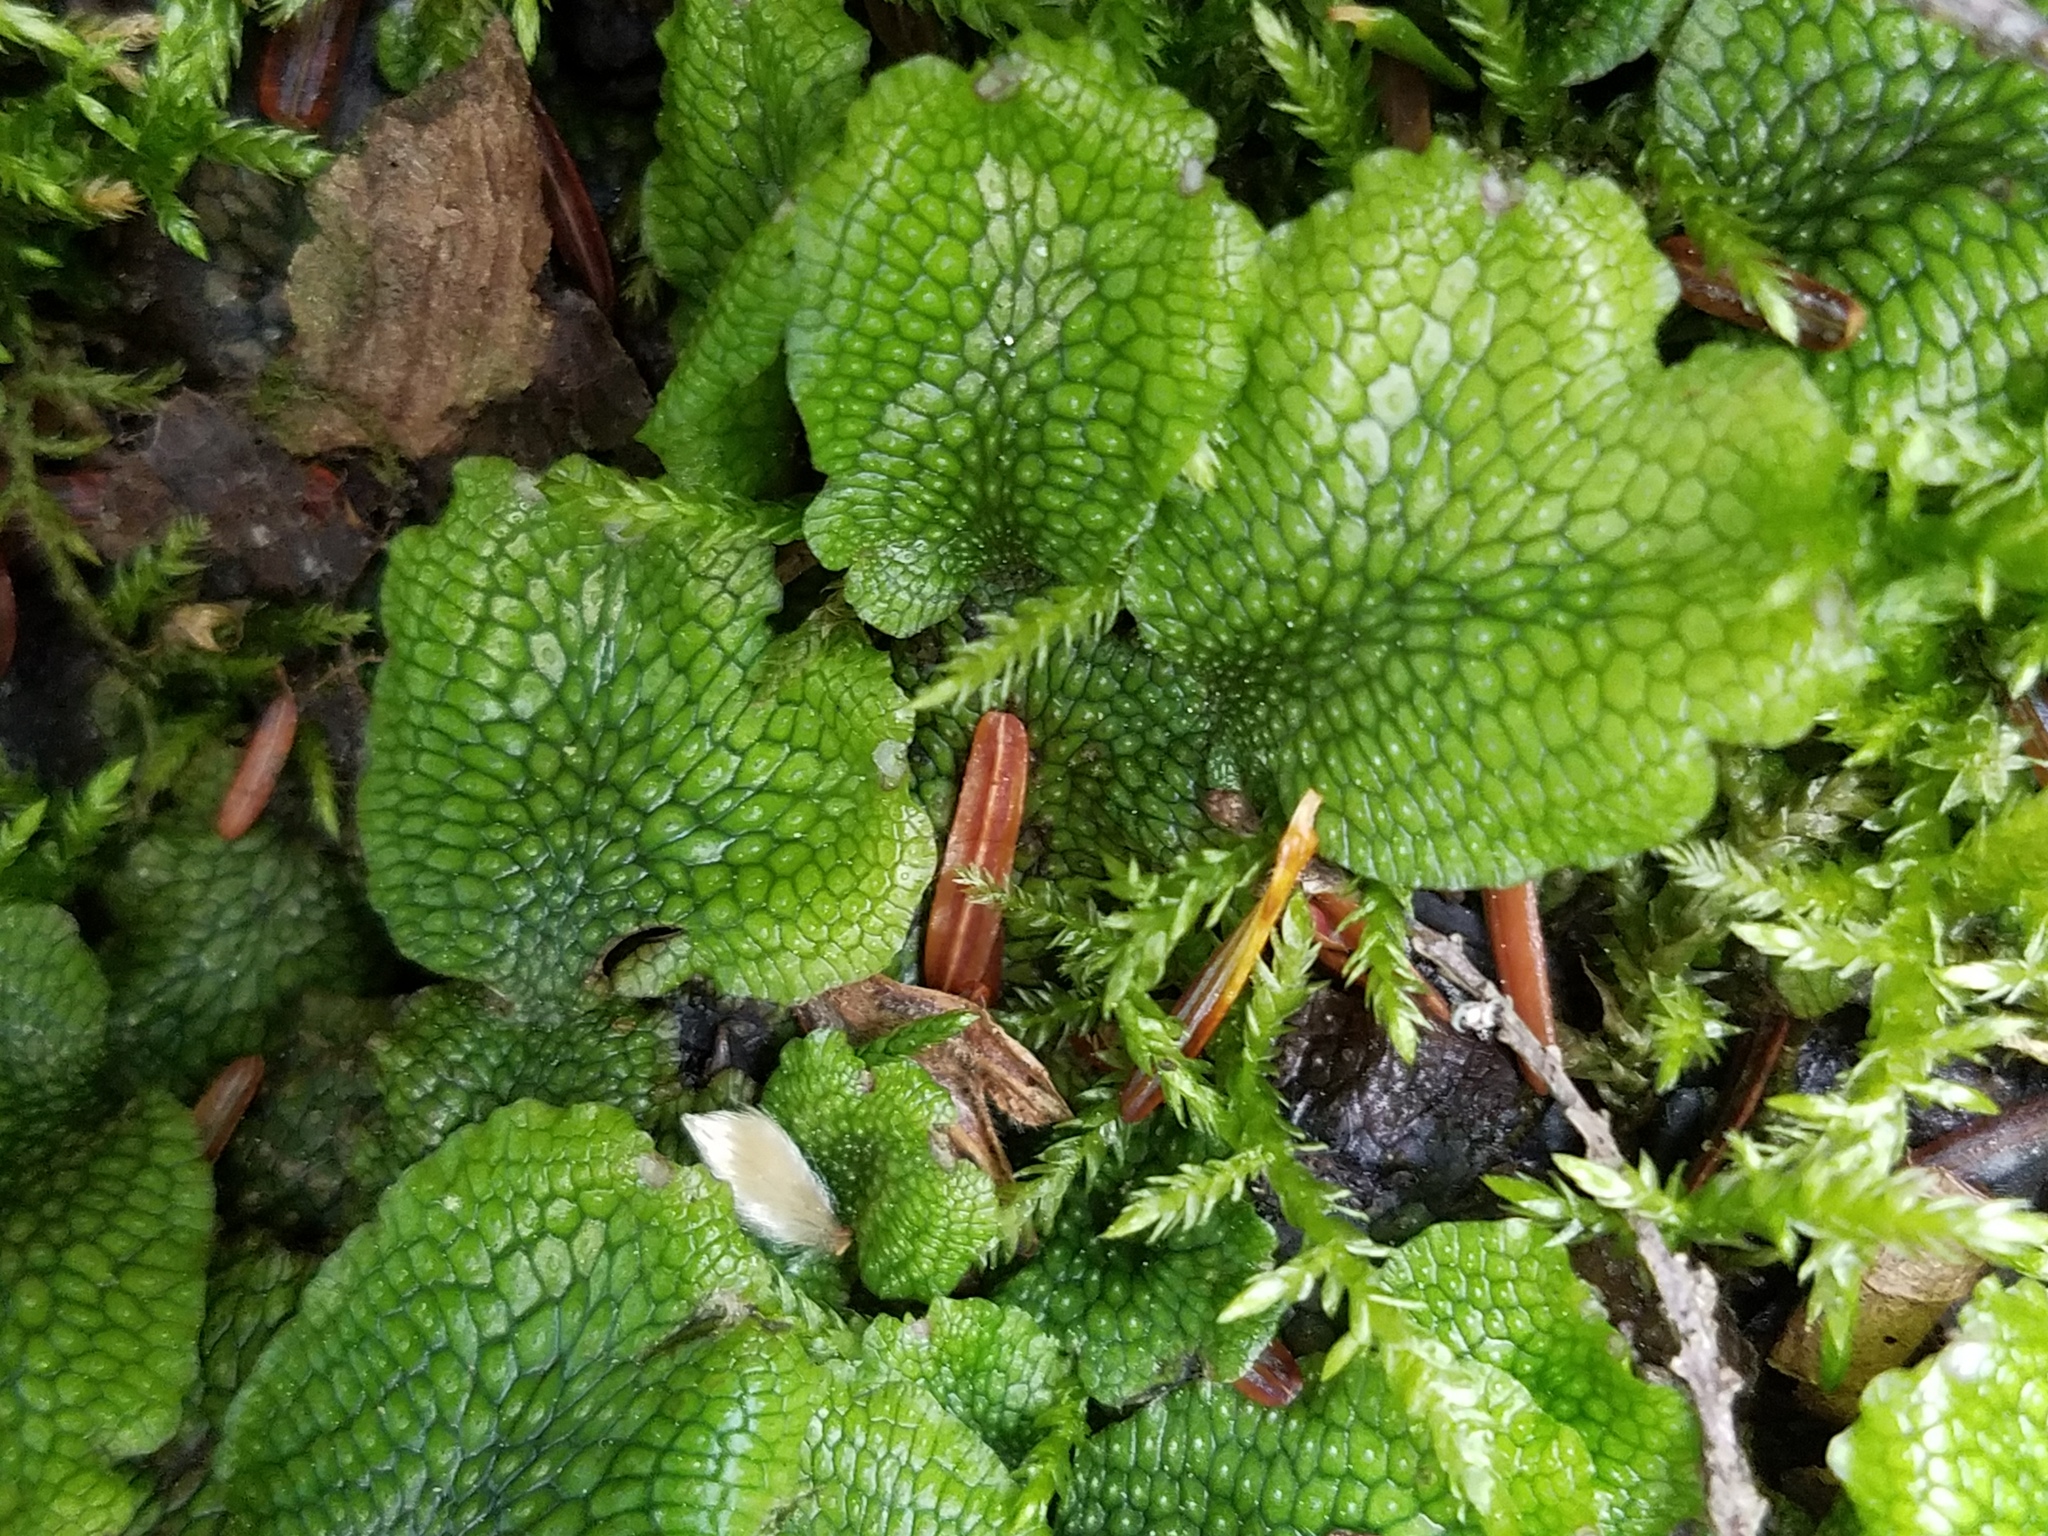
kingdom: Plantae
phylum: Marchantiophyta
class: Marchantiopsida
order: Marchantiales
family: Conocephalaceae
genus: Conocephalum
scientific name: Conocephalum salebrosum
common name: Cat-tongue liverwort
